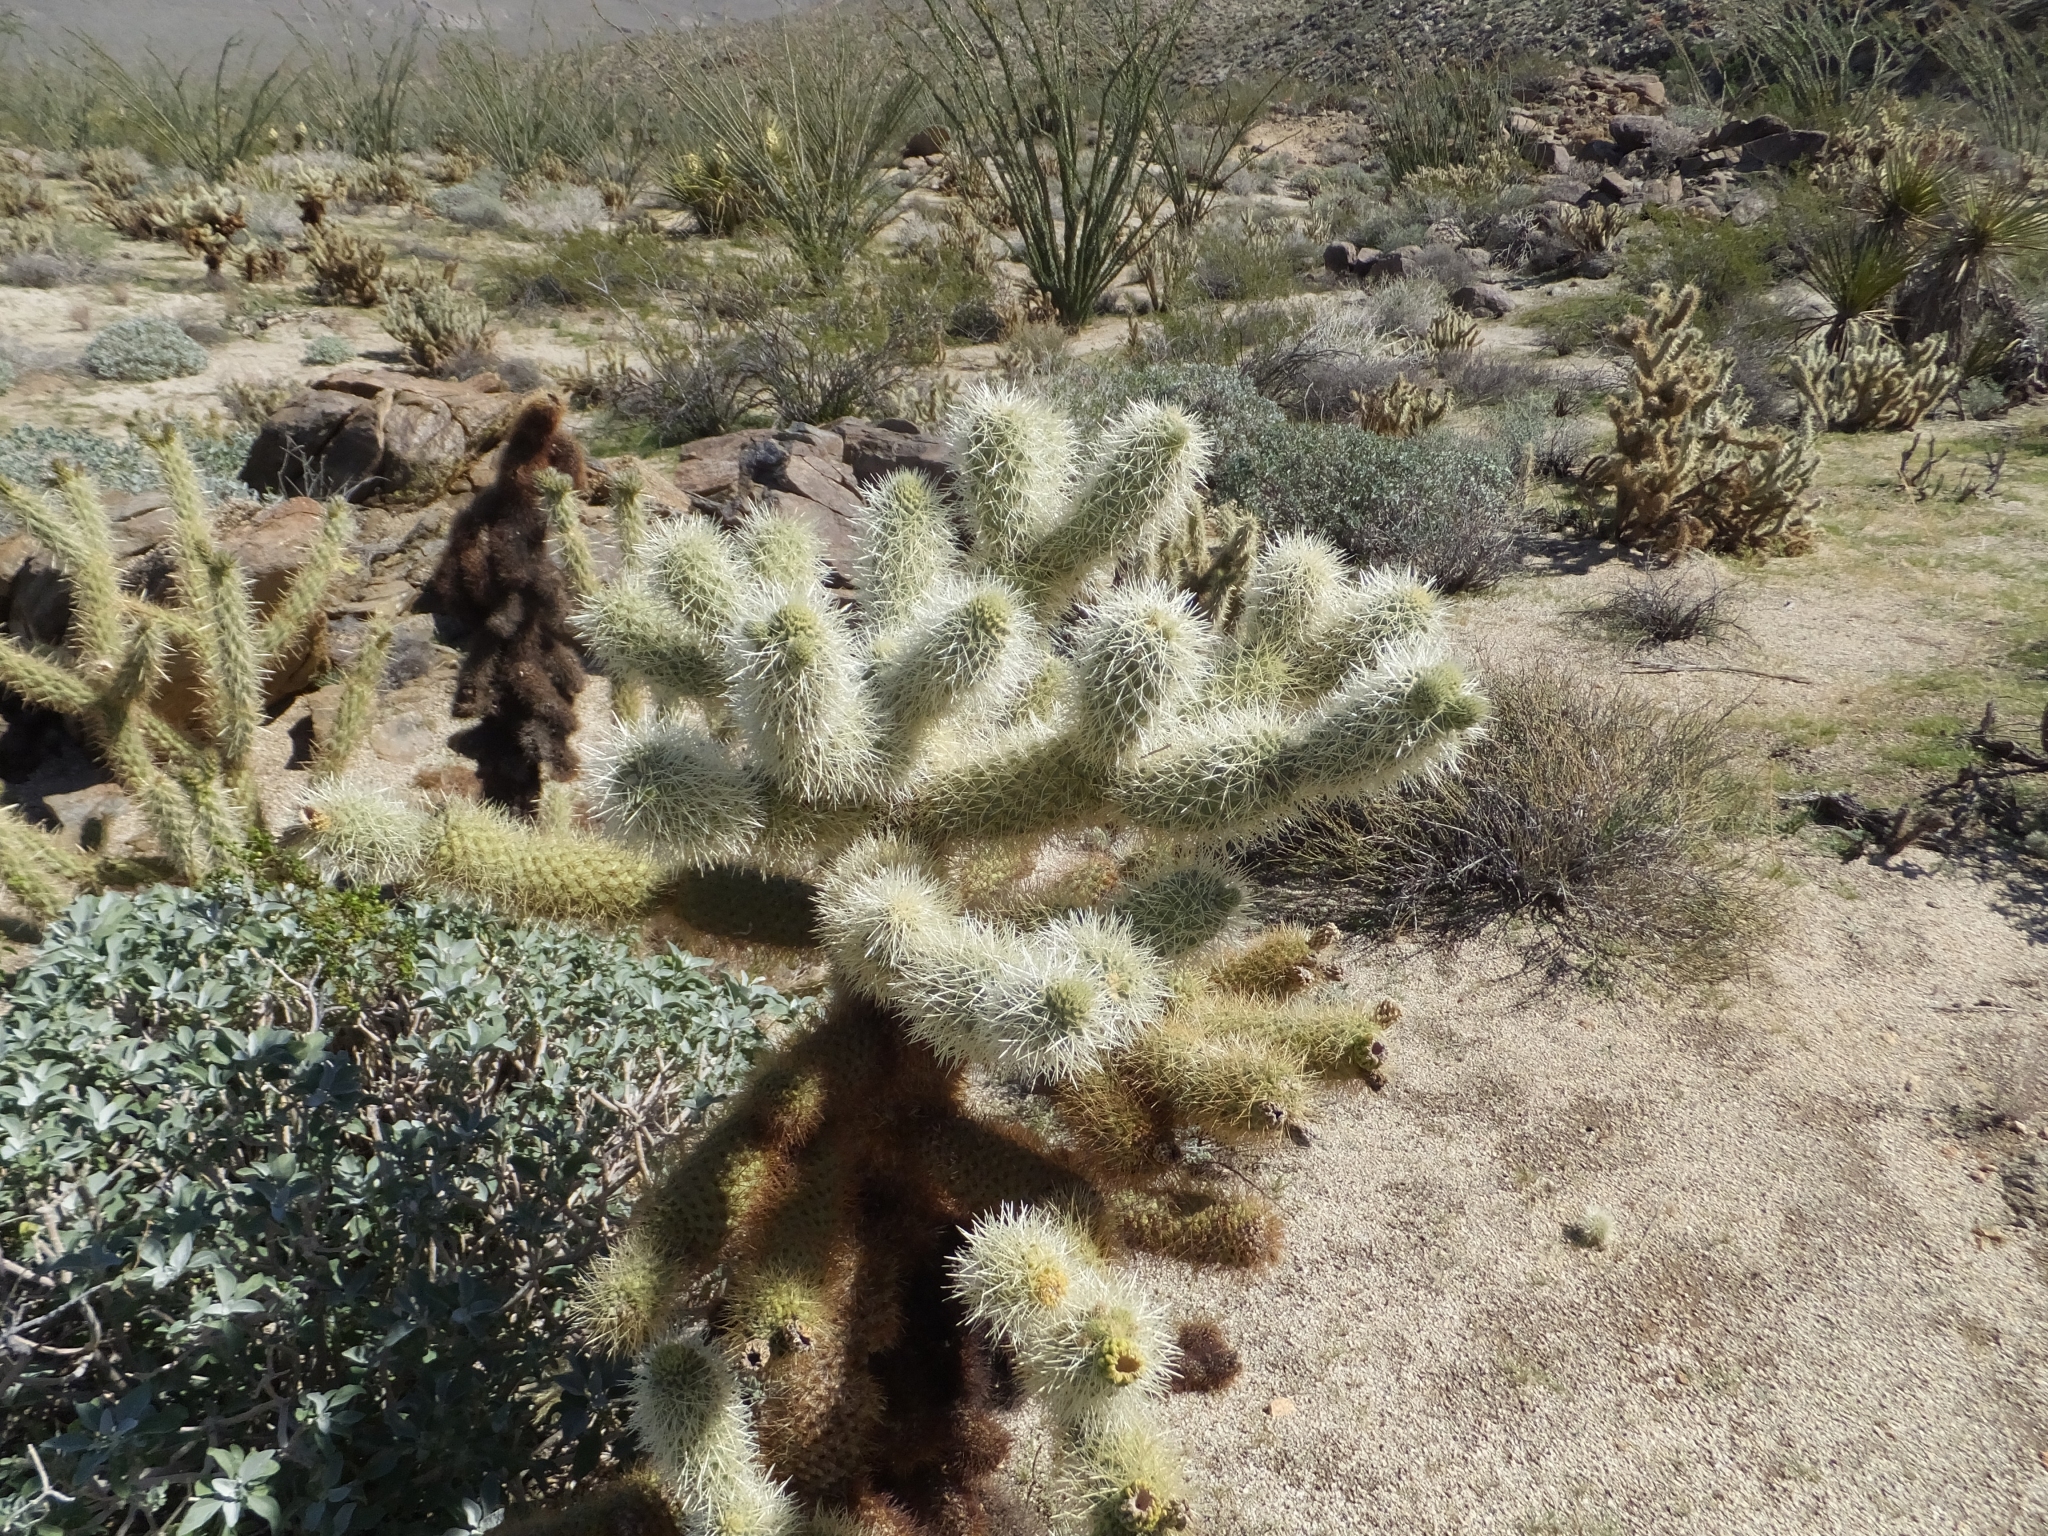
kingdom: Plantae
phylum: Tracheophyta
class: Magnoliopsida
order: Caryophyllales
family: Cactaceae
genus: Cylindropuntia
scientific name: Cylindropuntia fosbergii
